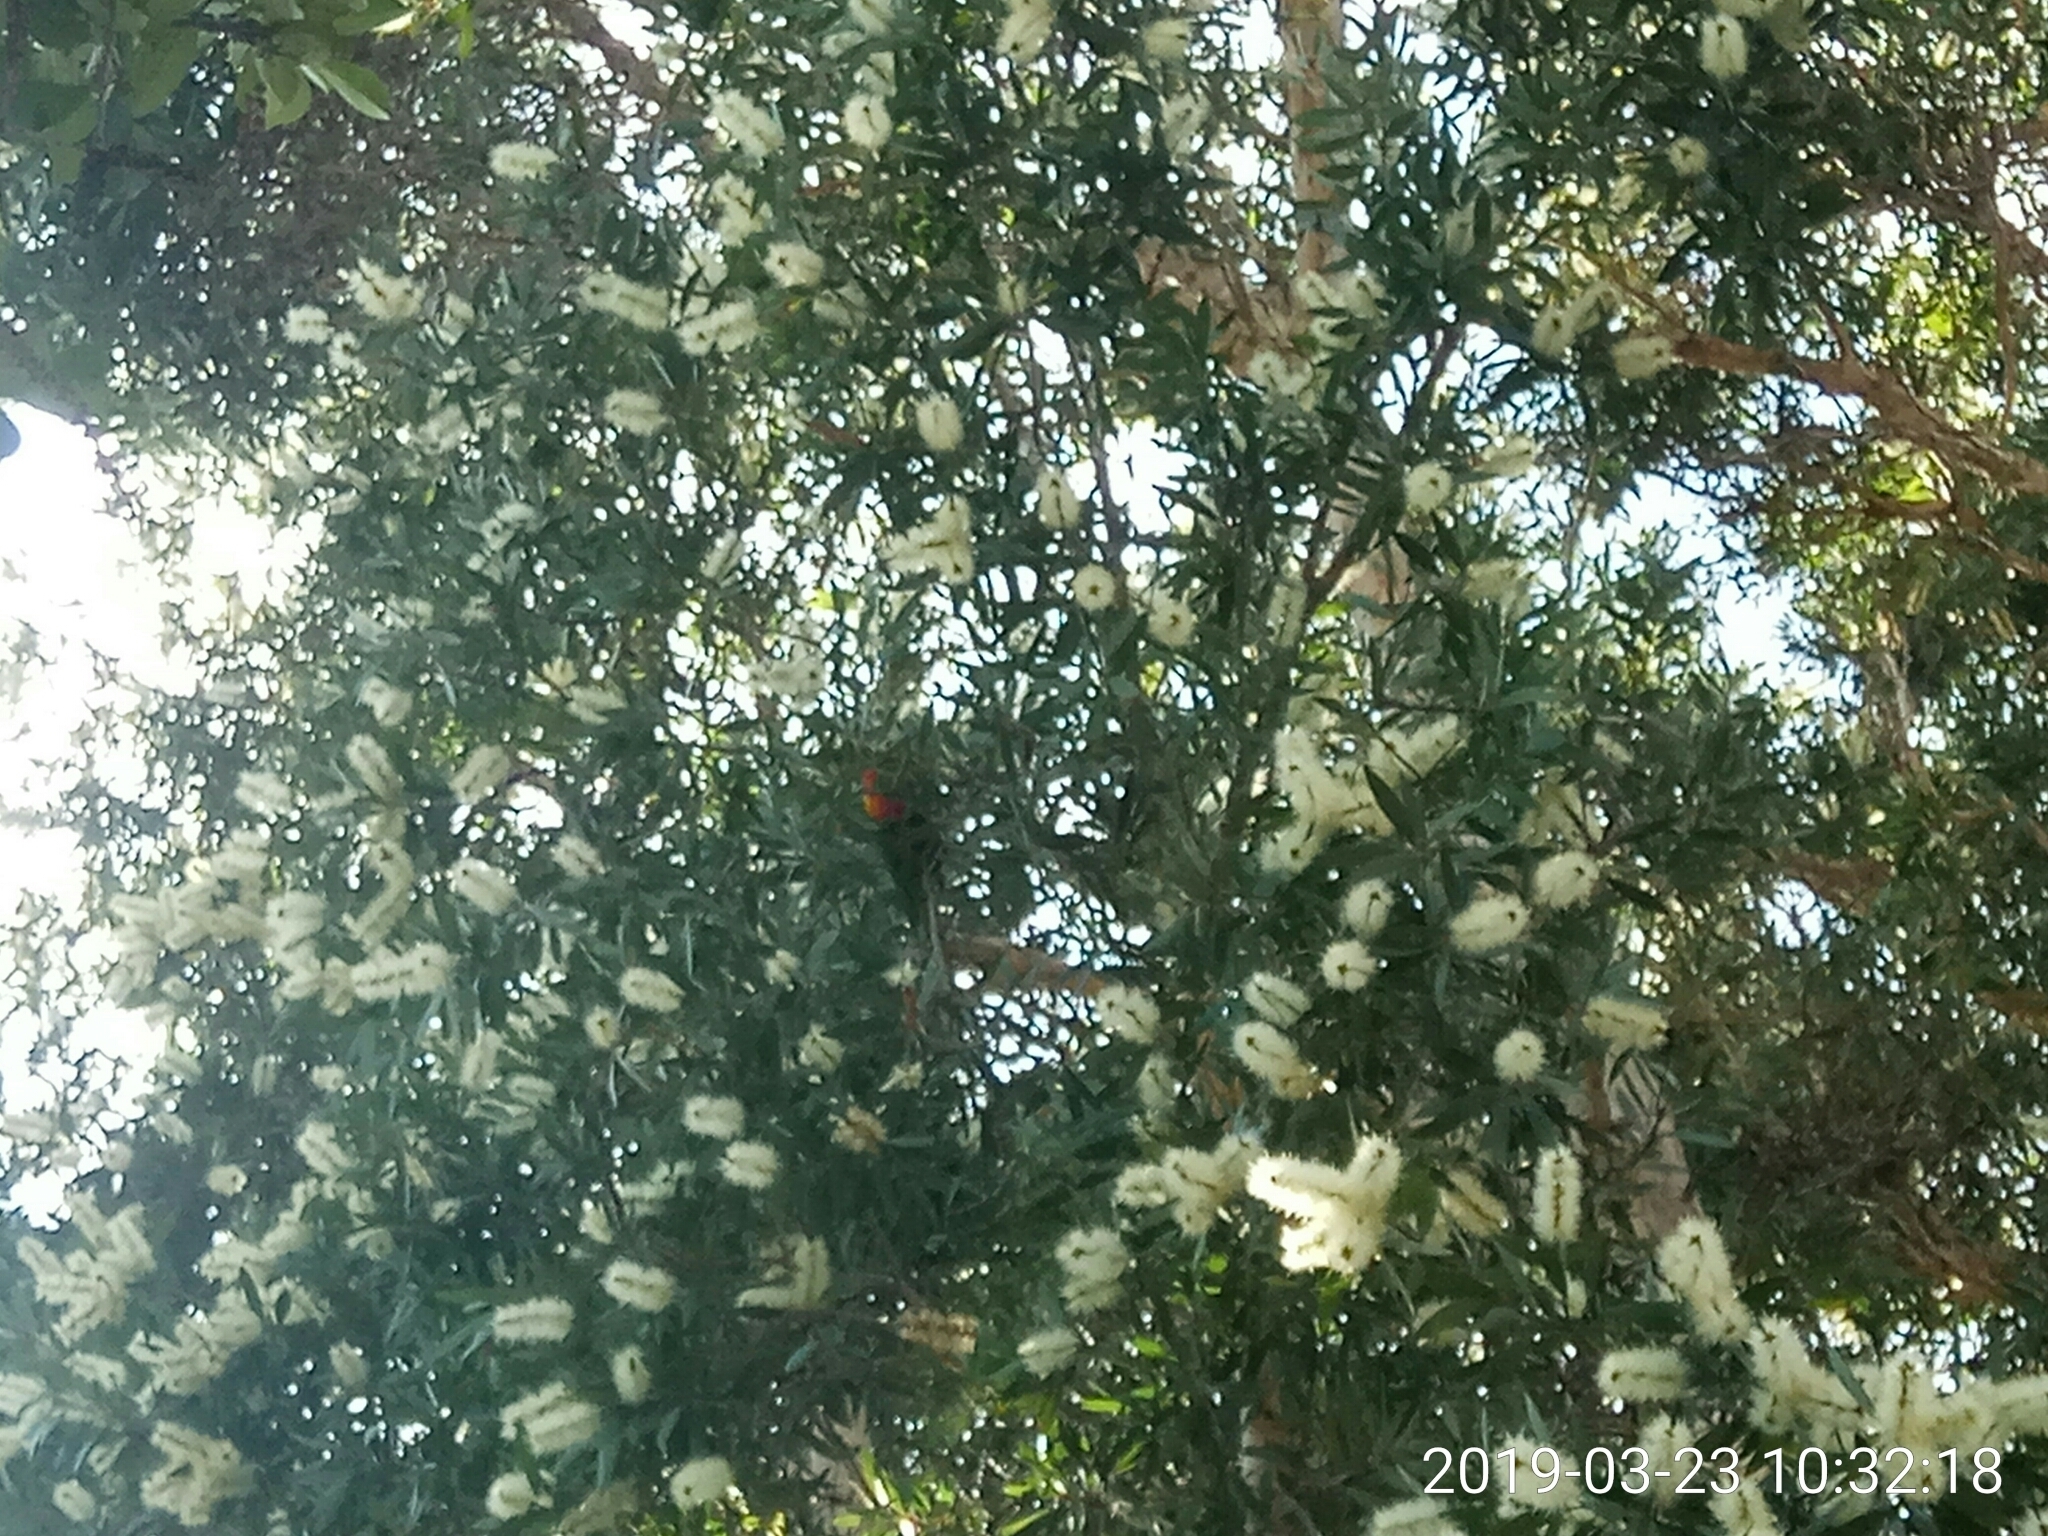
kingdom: Animalia
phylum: Chordata
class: Aves
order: Psittaciformes
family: Psittacidae
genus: Trichoglossus
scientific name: Trichoglossus haematodus
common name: Coconut lorikeet
